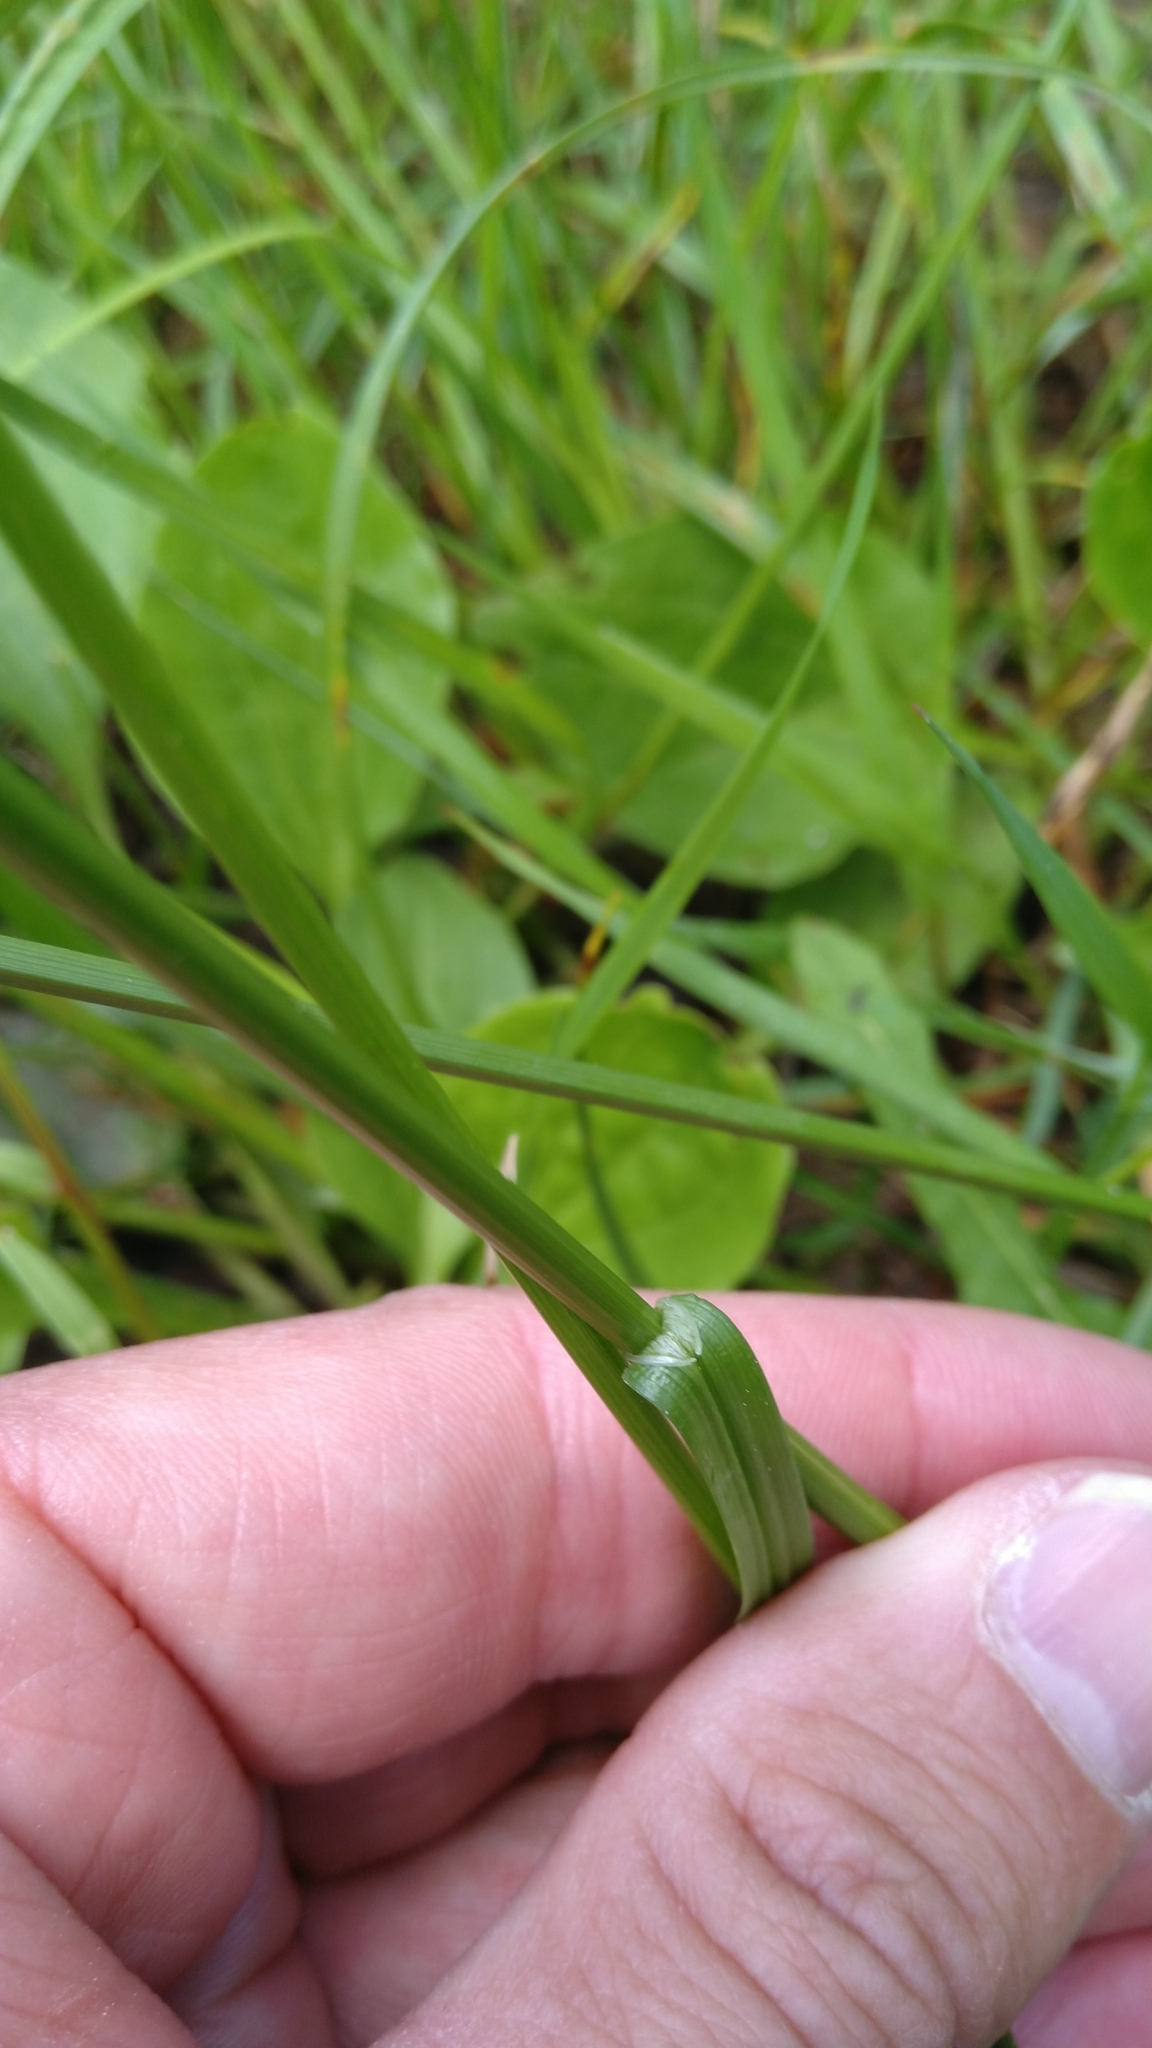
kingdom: Plantae
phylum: Tracheophyta
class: Liliopsida
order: Poales
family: Cyperaceae
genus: Carex
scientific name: Carex leporina
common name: Oval sedge
